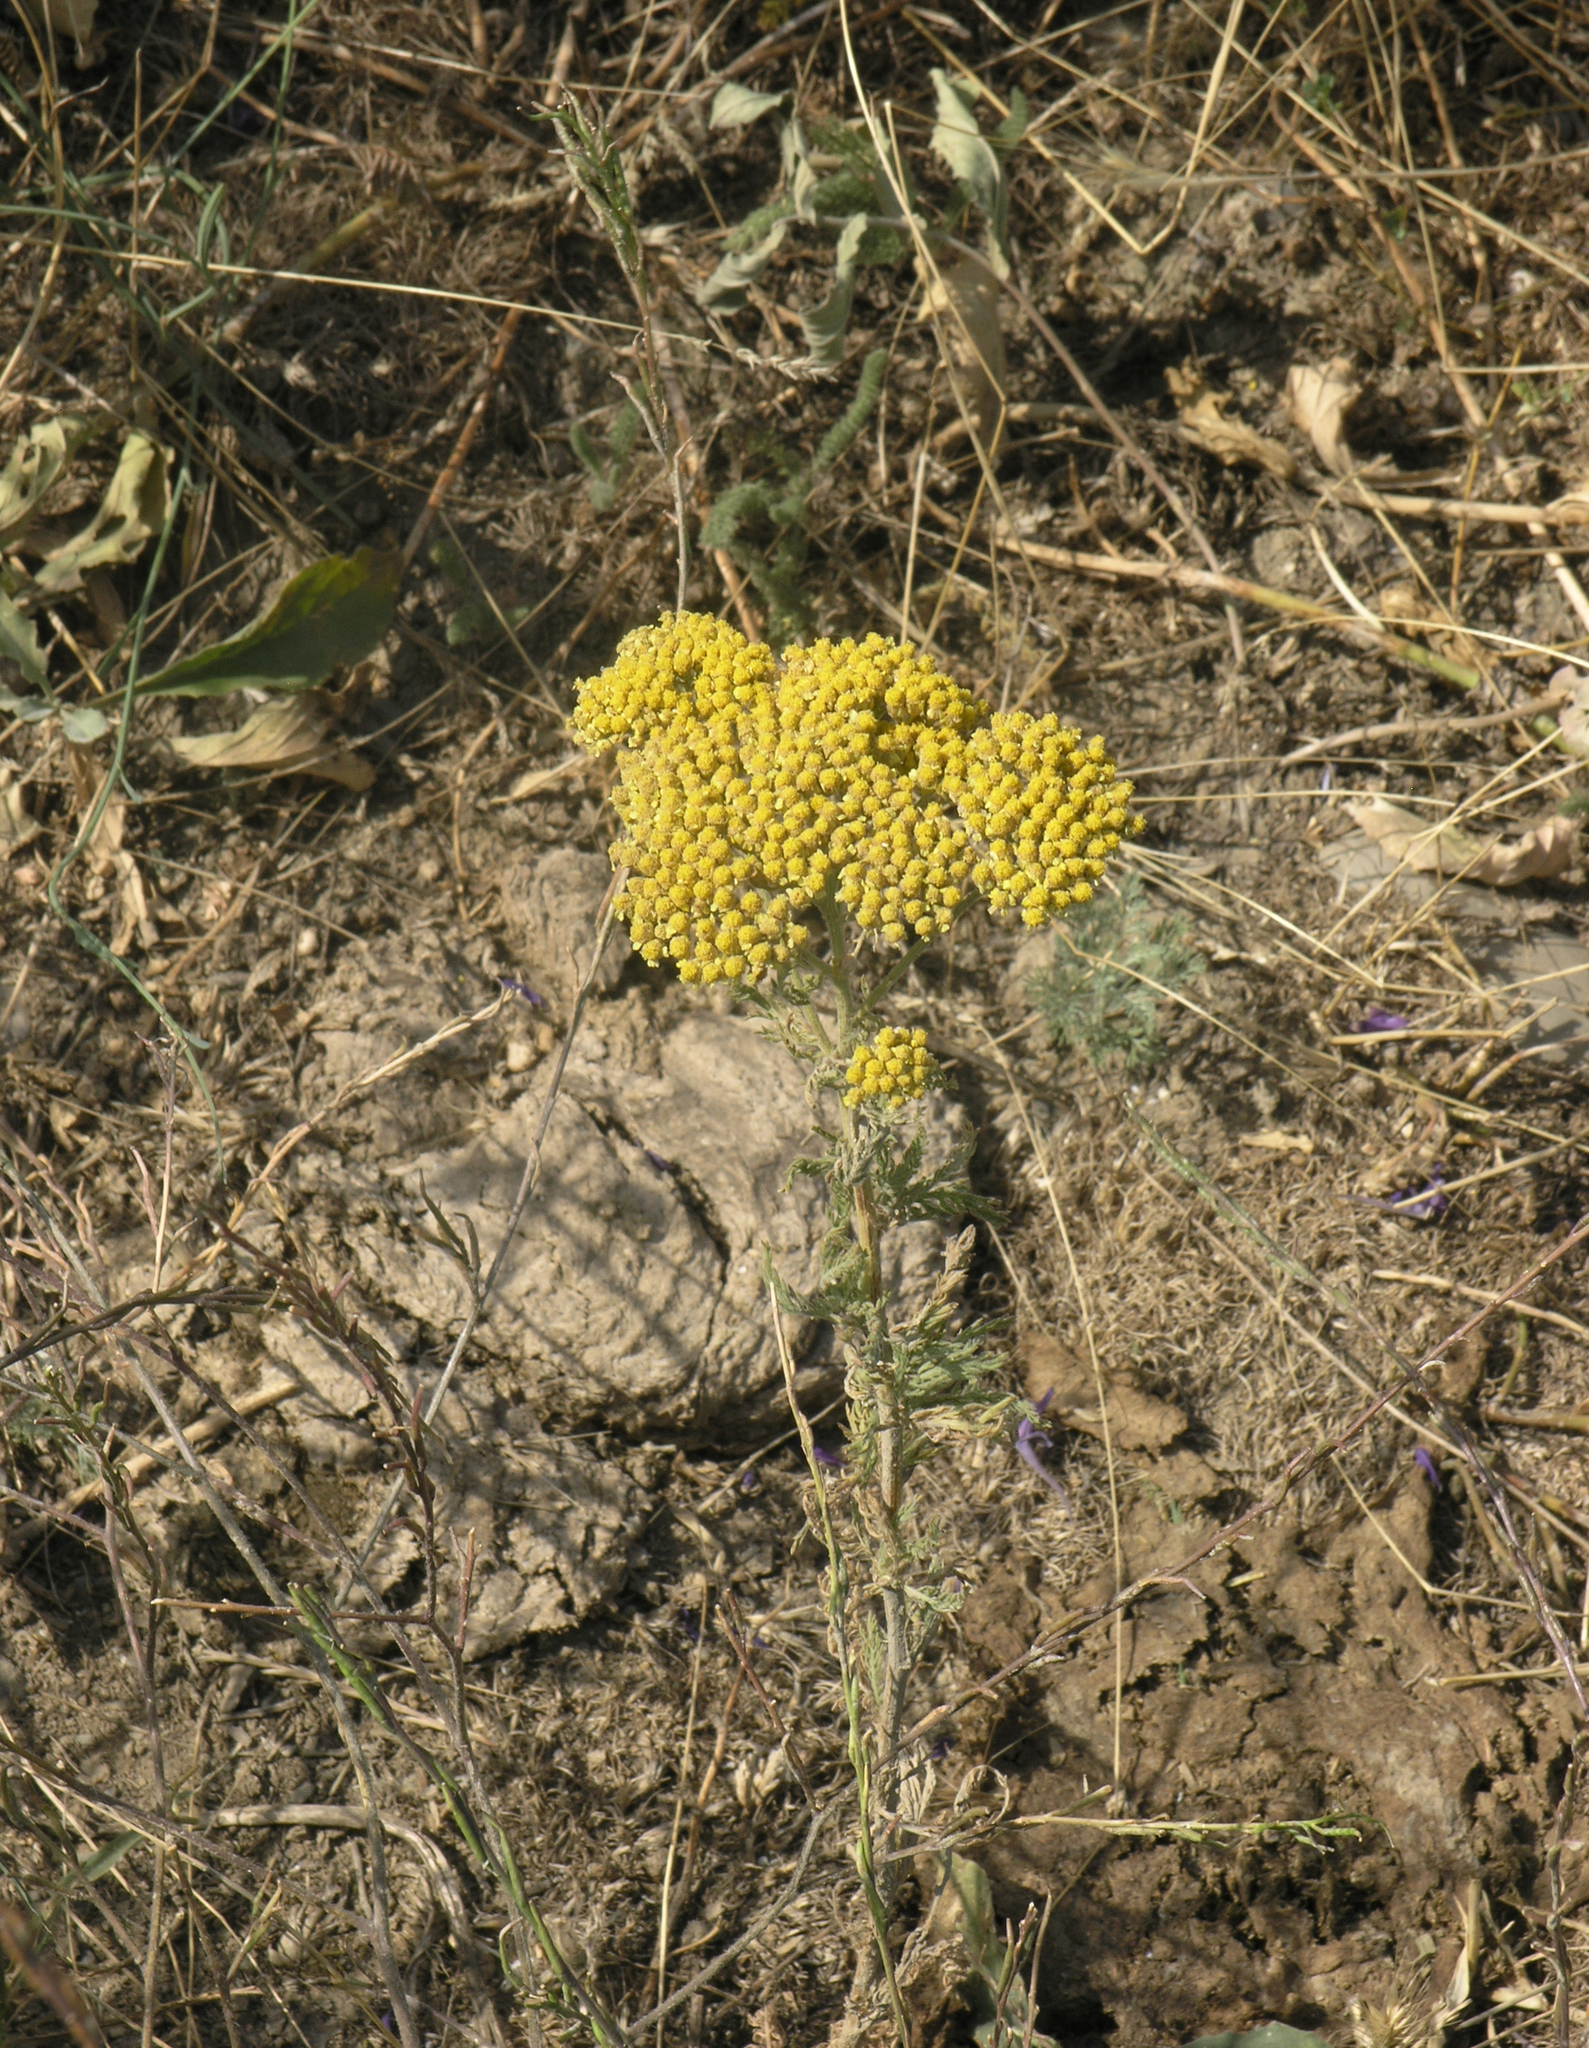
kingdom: Plantae
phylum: Tracheophyta
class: Magnoliopsida
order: Asterales
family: Asteraceae
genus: Achillea
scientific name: Achillea arabica
